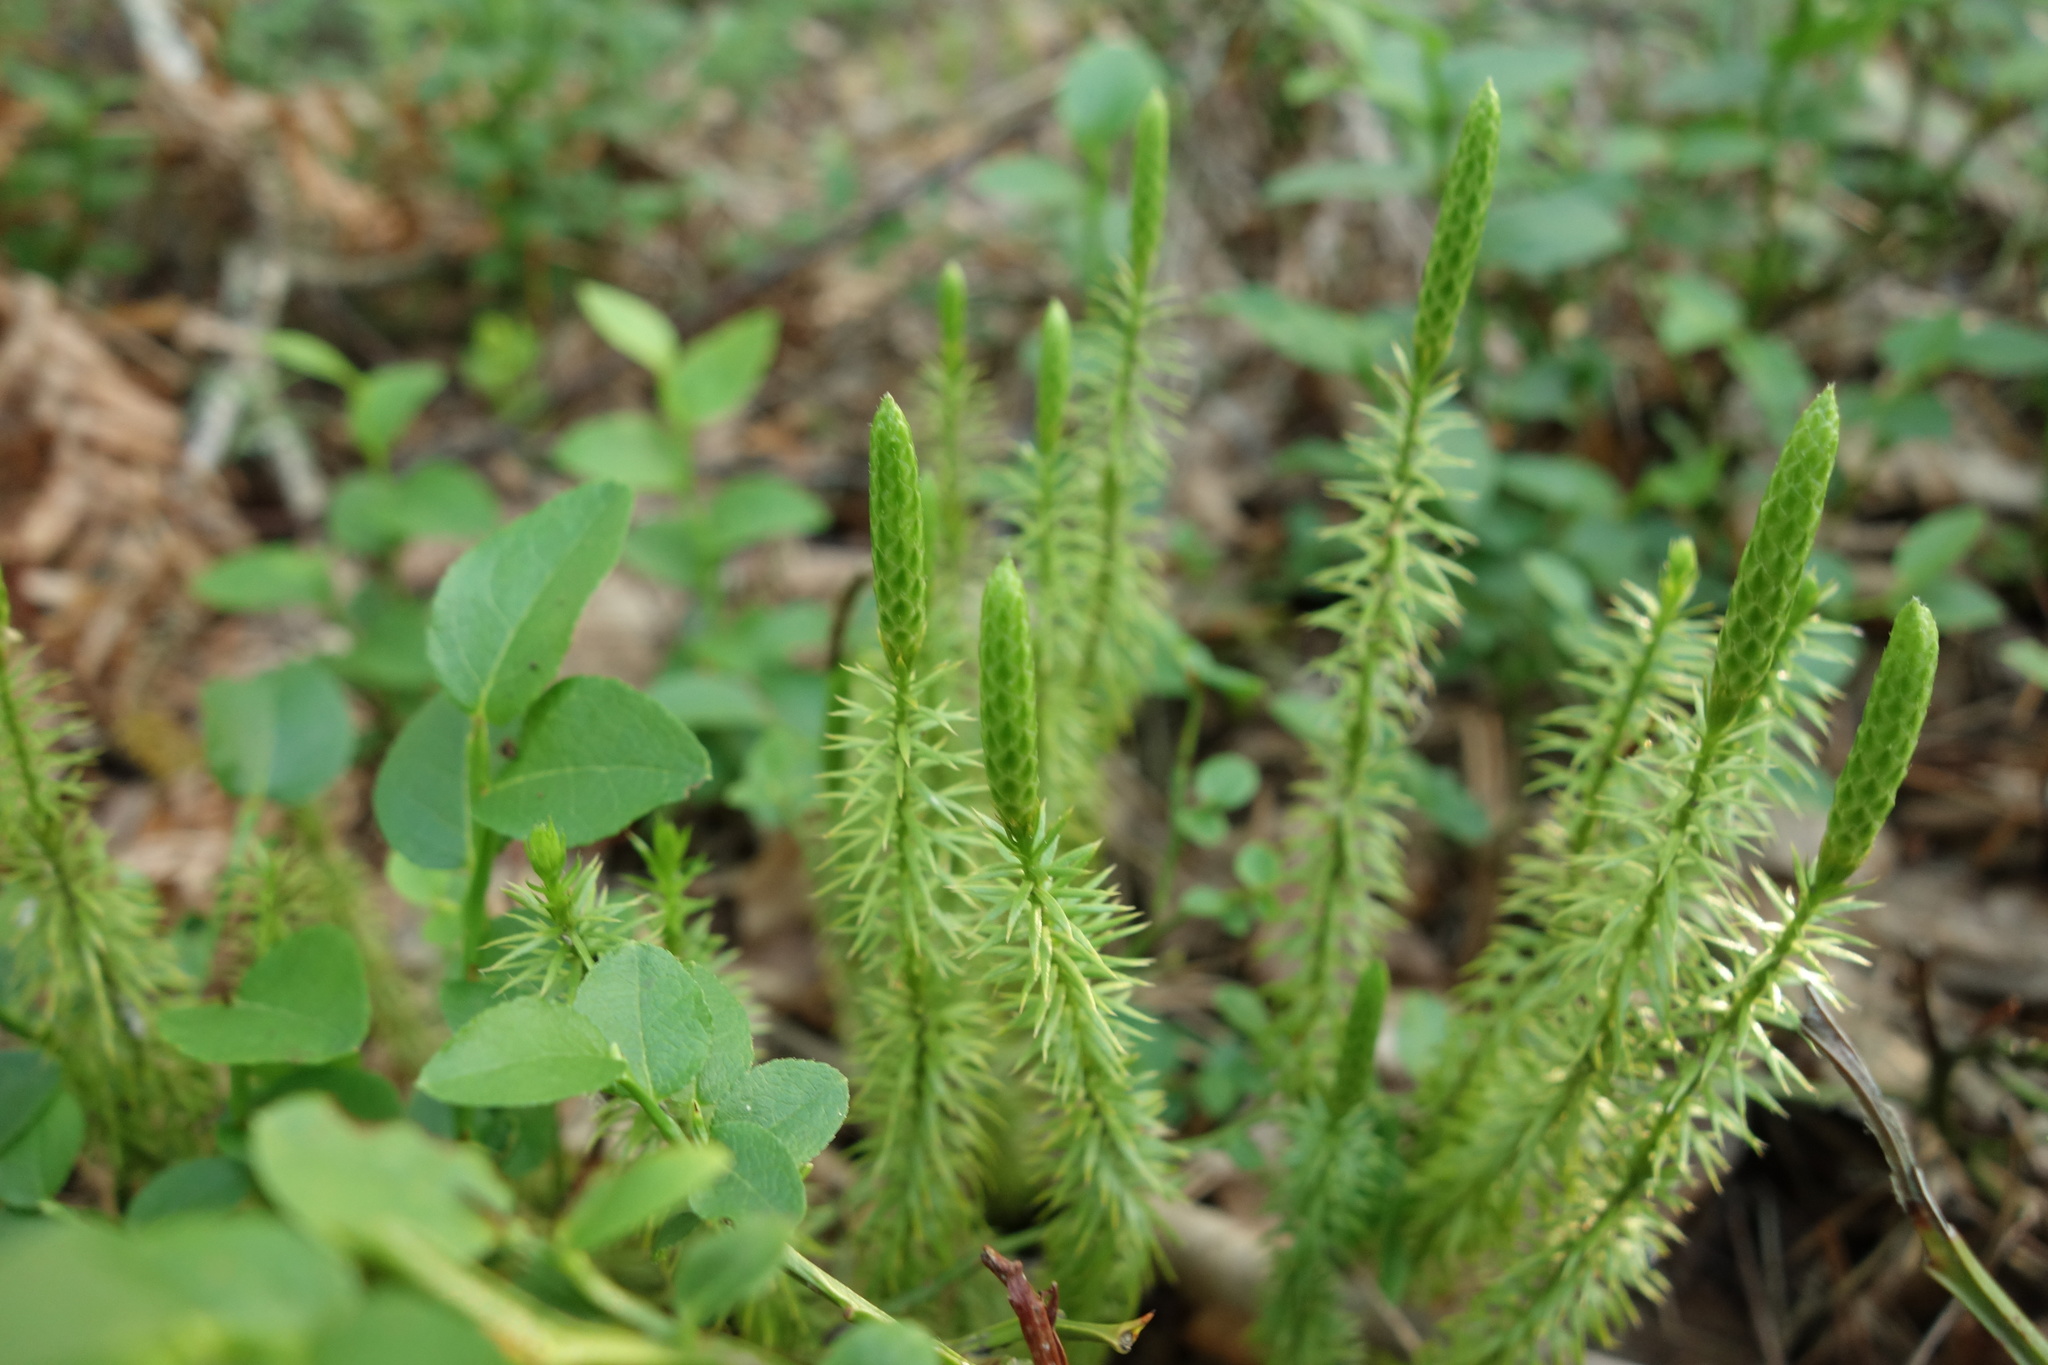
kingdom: Plantae
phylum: Tracheophyta
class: Lycopodiopsida
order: Lycopodiales
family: Lycopodiaceae
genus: Spinulum
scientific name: Spinulum annotinum
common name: Interrupted club-moss
